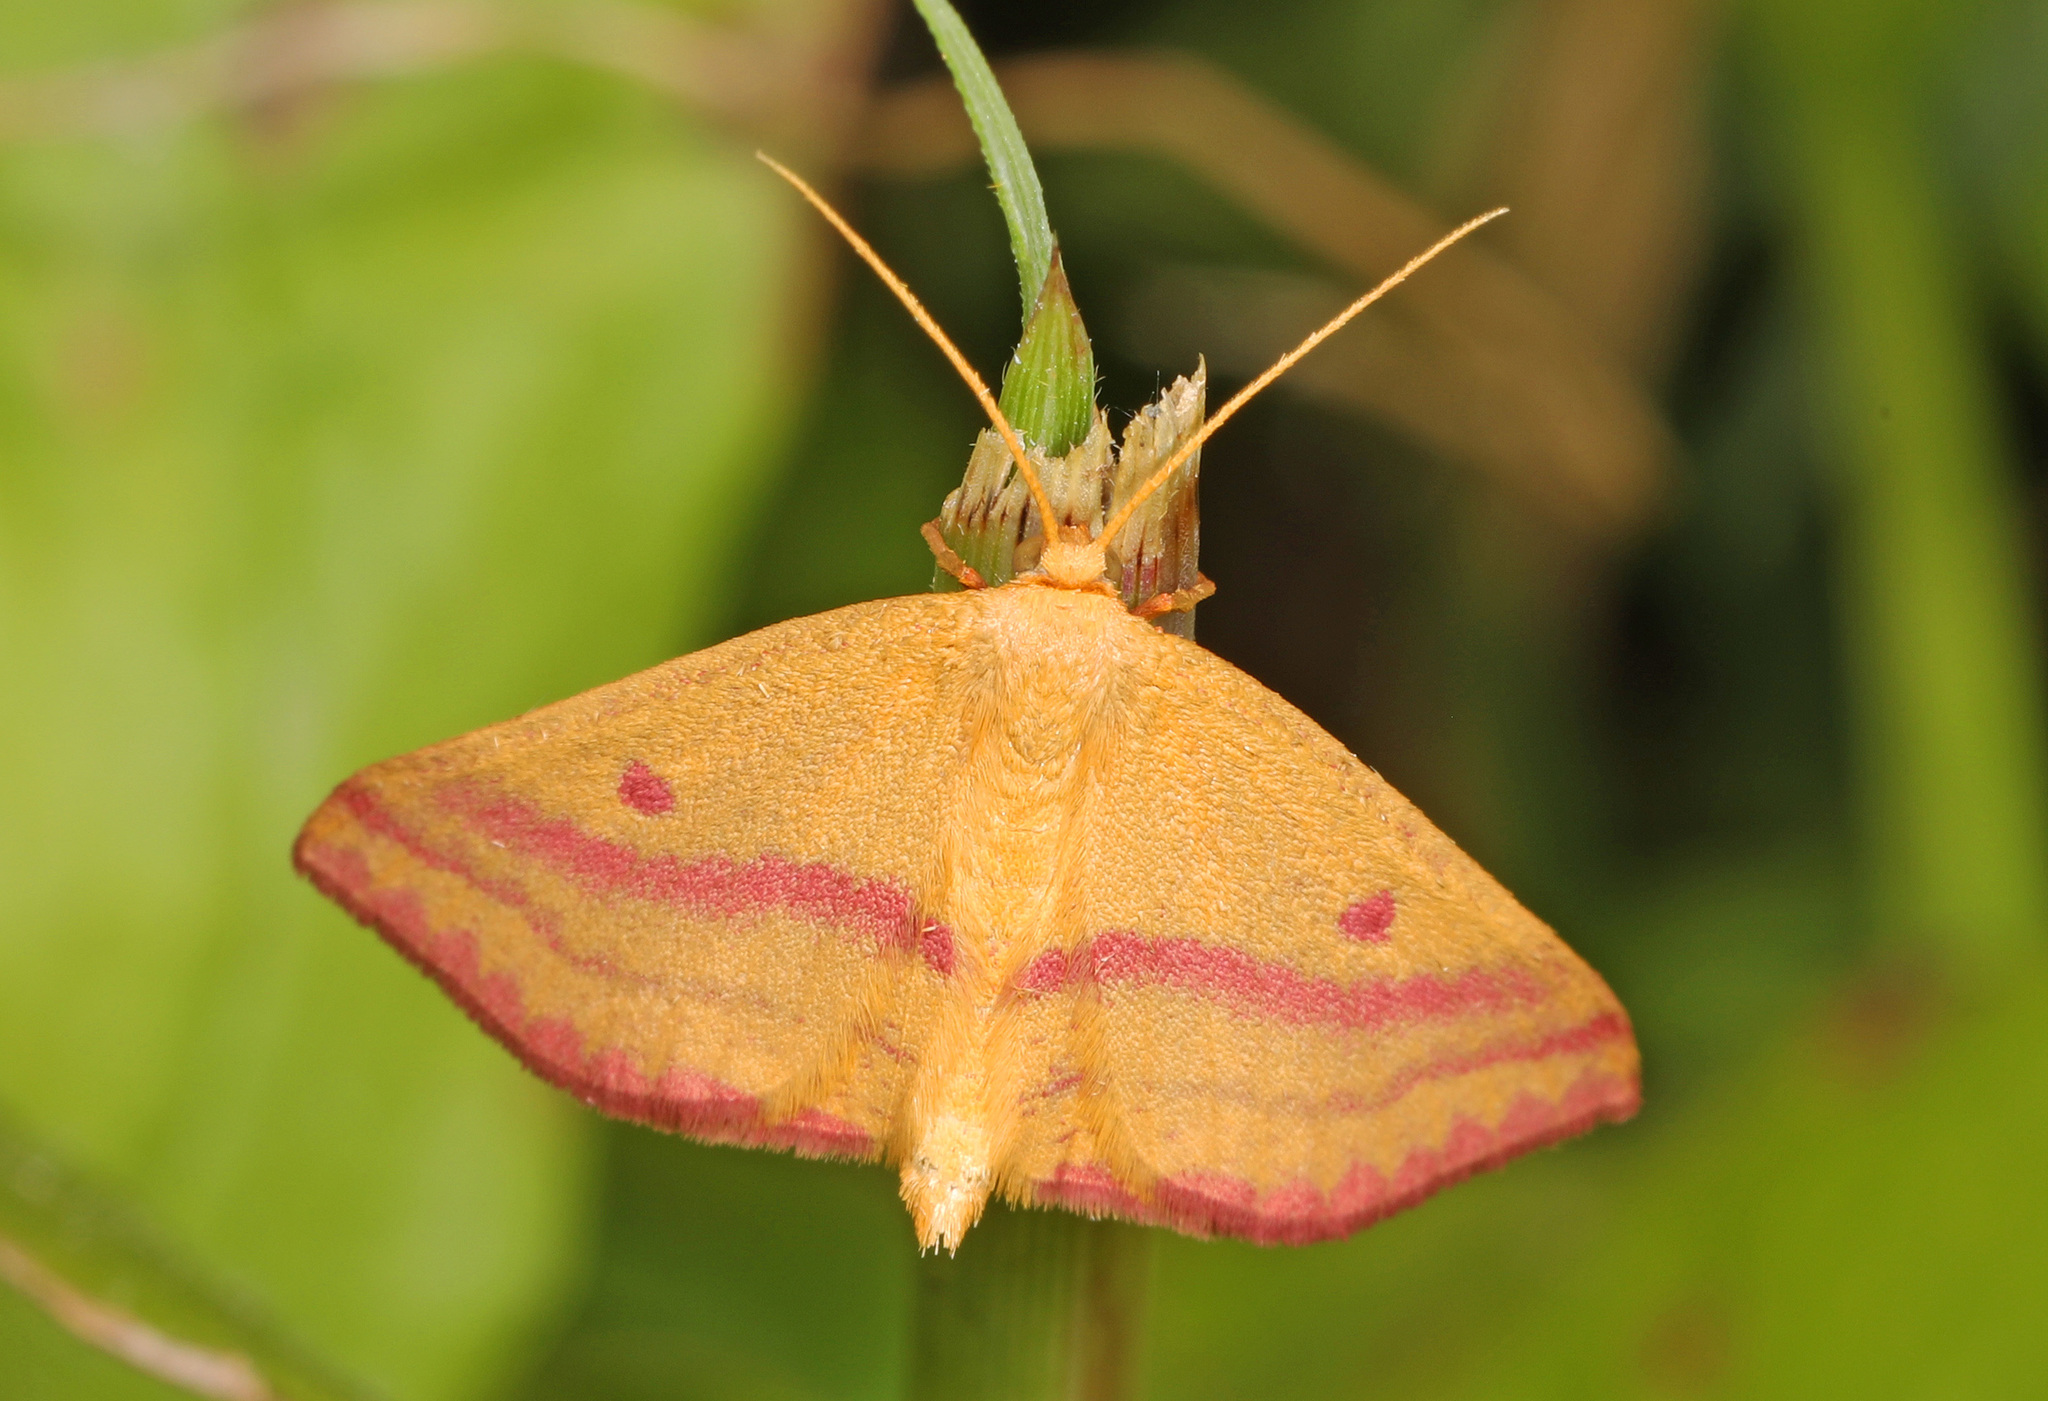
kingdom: Animalia
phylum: Arthropoda
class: Insecta
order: Lepidoptera
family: Geometridae
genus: Haematopis
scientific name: Haematopis grataria
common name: Chickweed geometer
